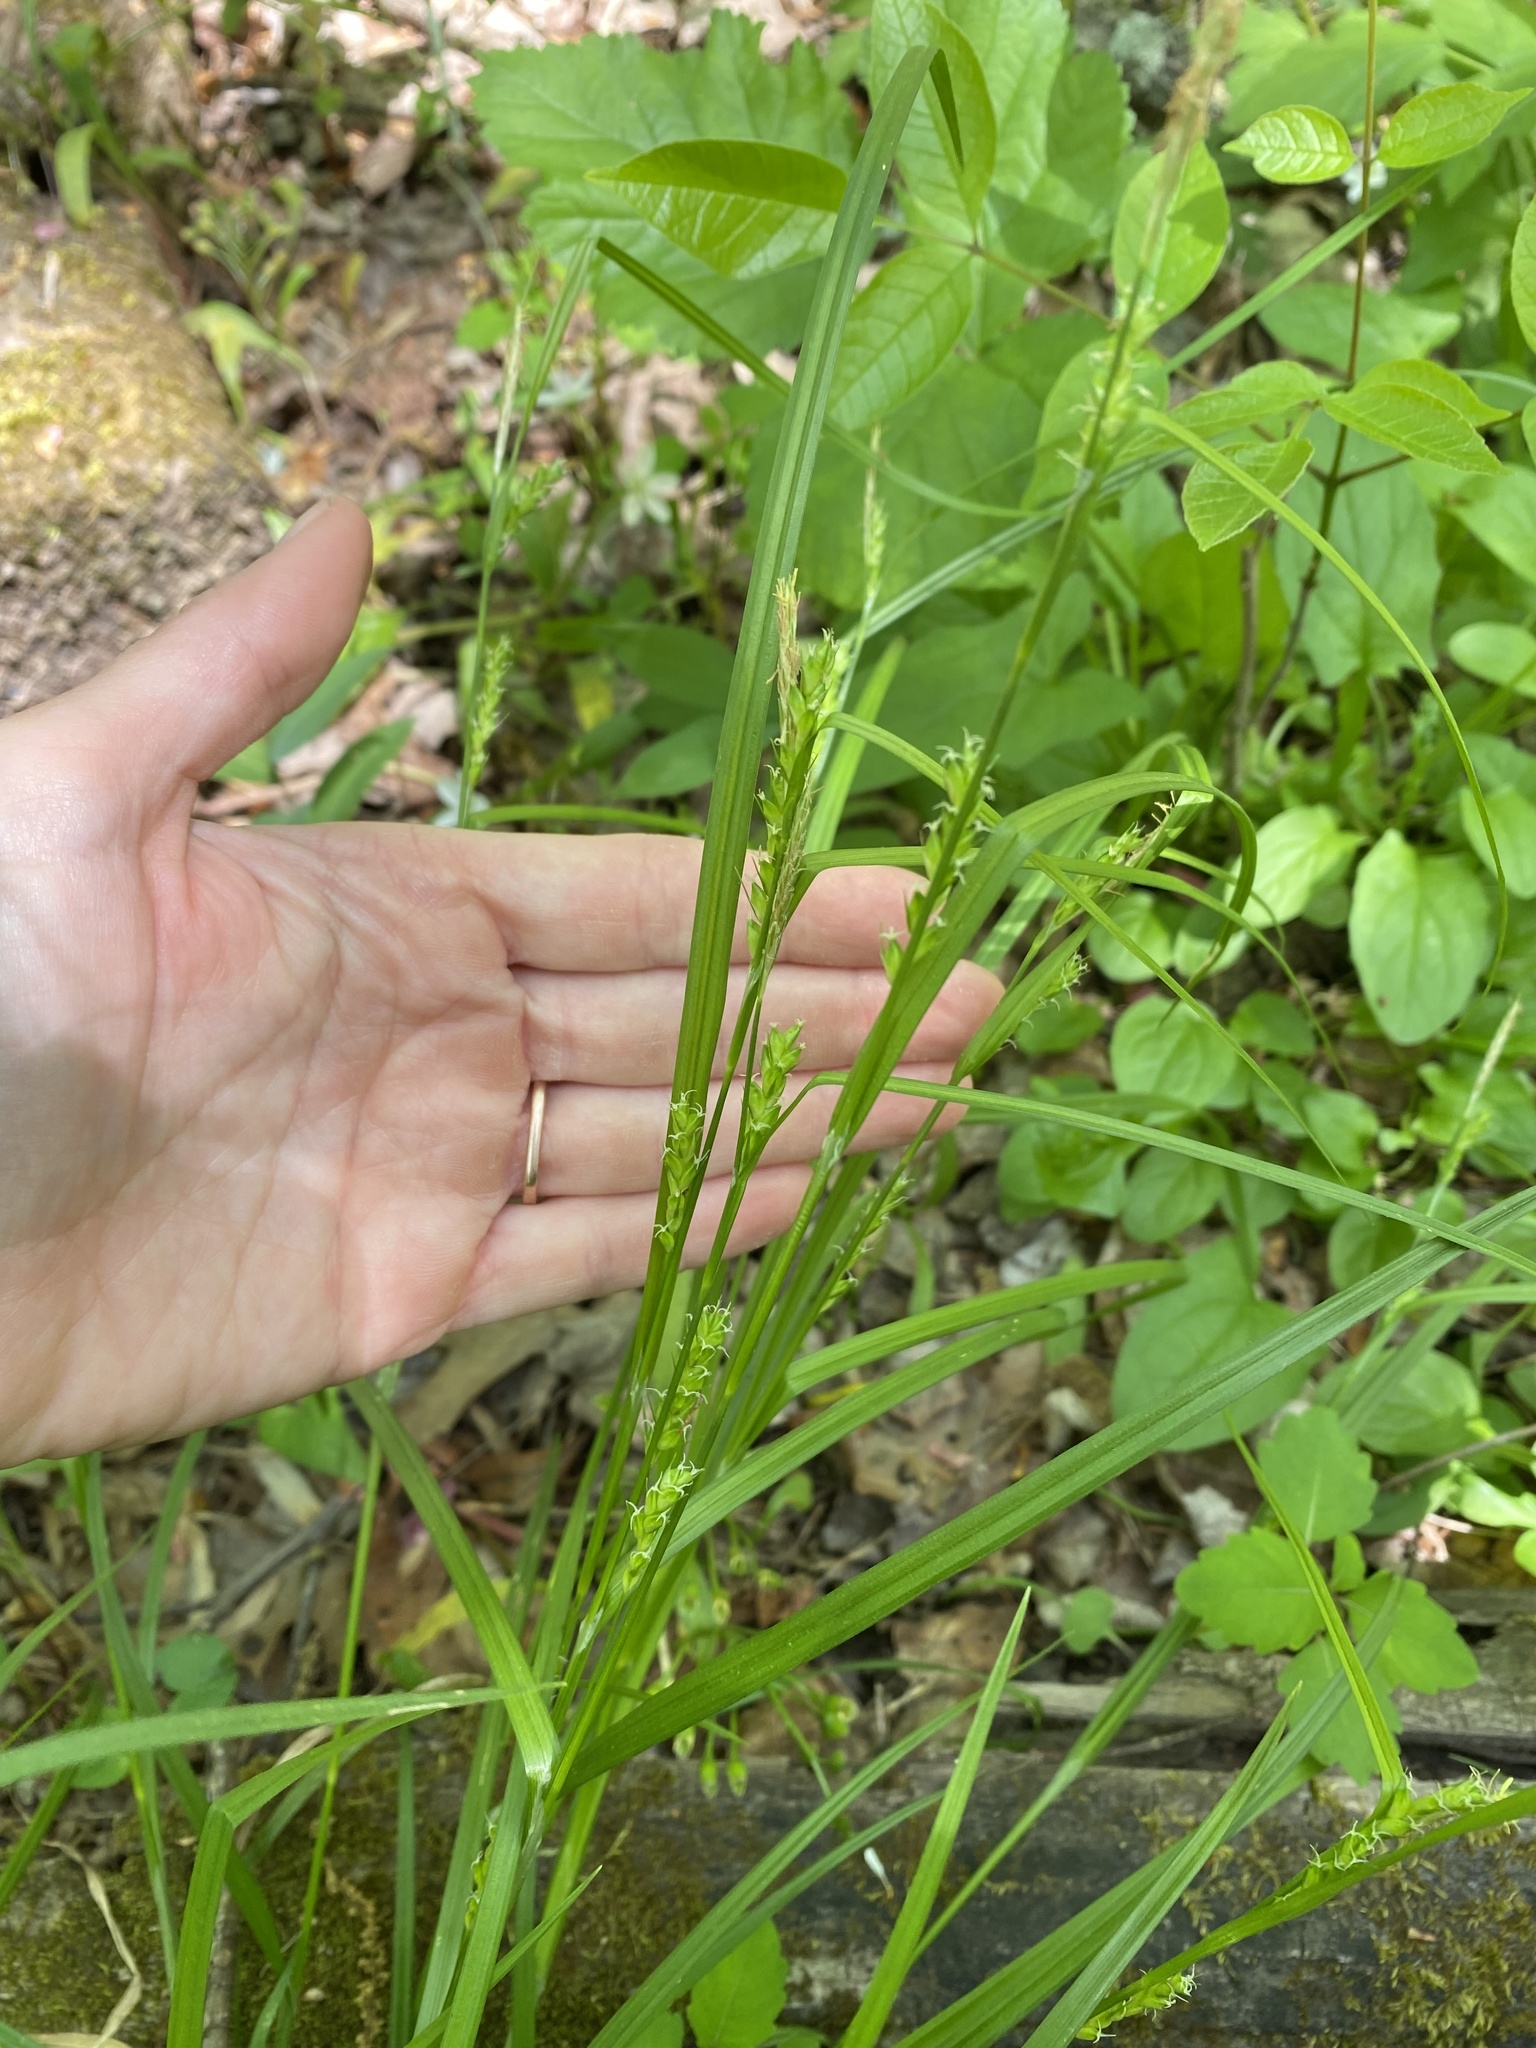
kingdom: Plantae
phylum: Tracheophyta
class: Liliopsida
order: Poales
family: Cyperaceae
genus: Carex
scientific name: Carex amphibola
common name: Amphibious sedge
